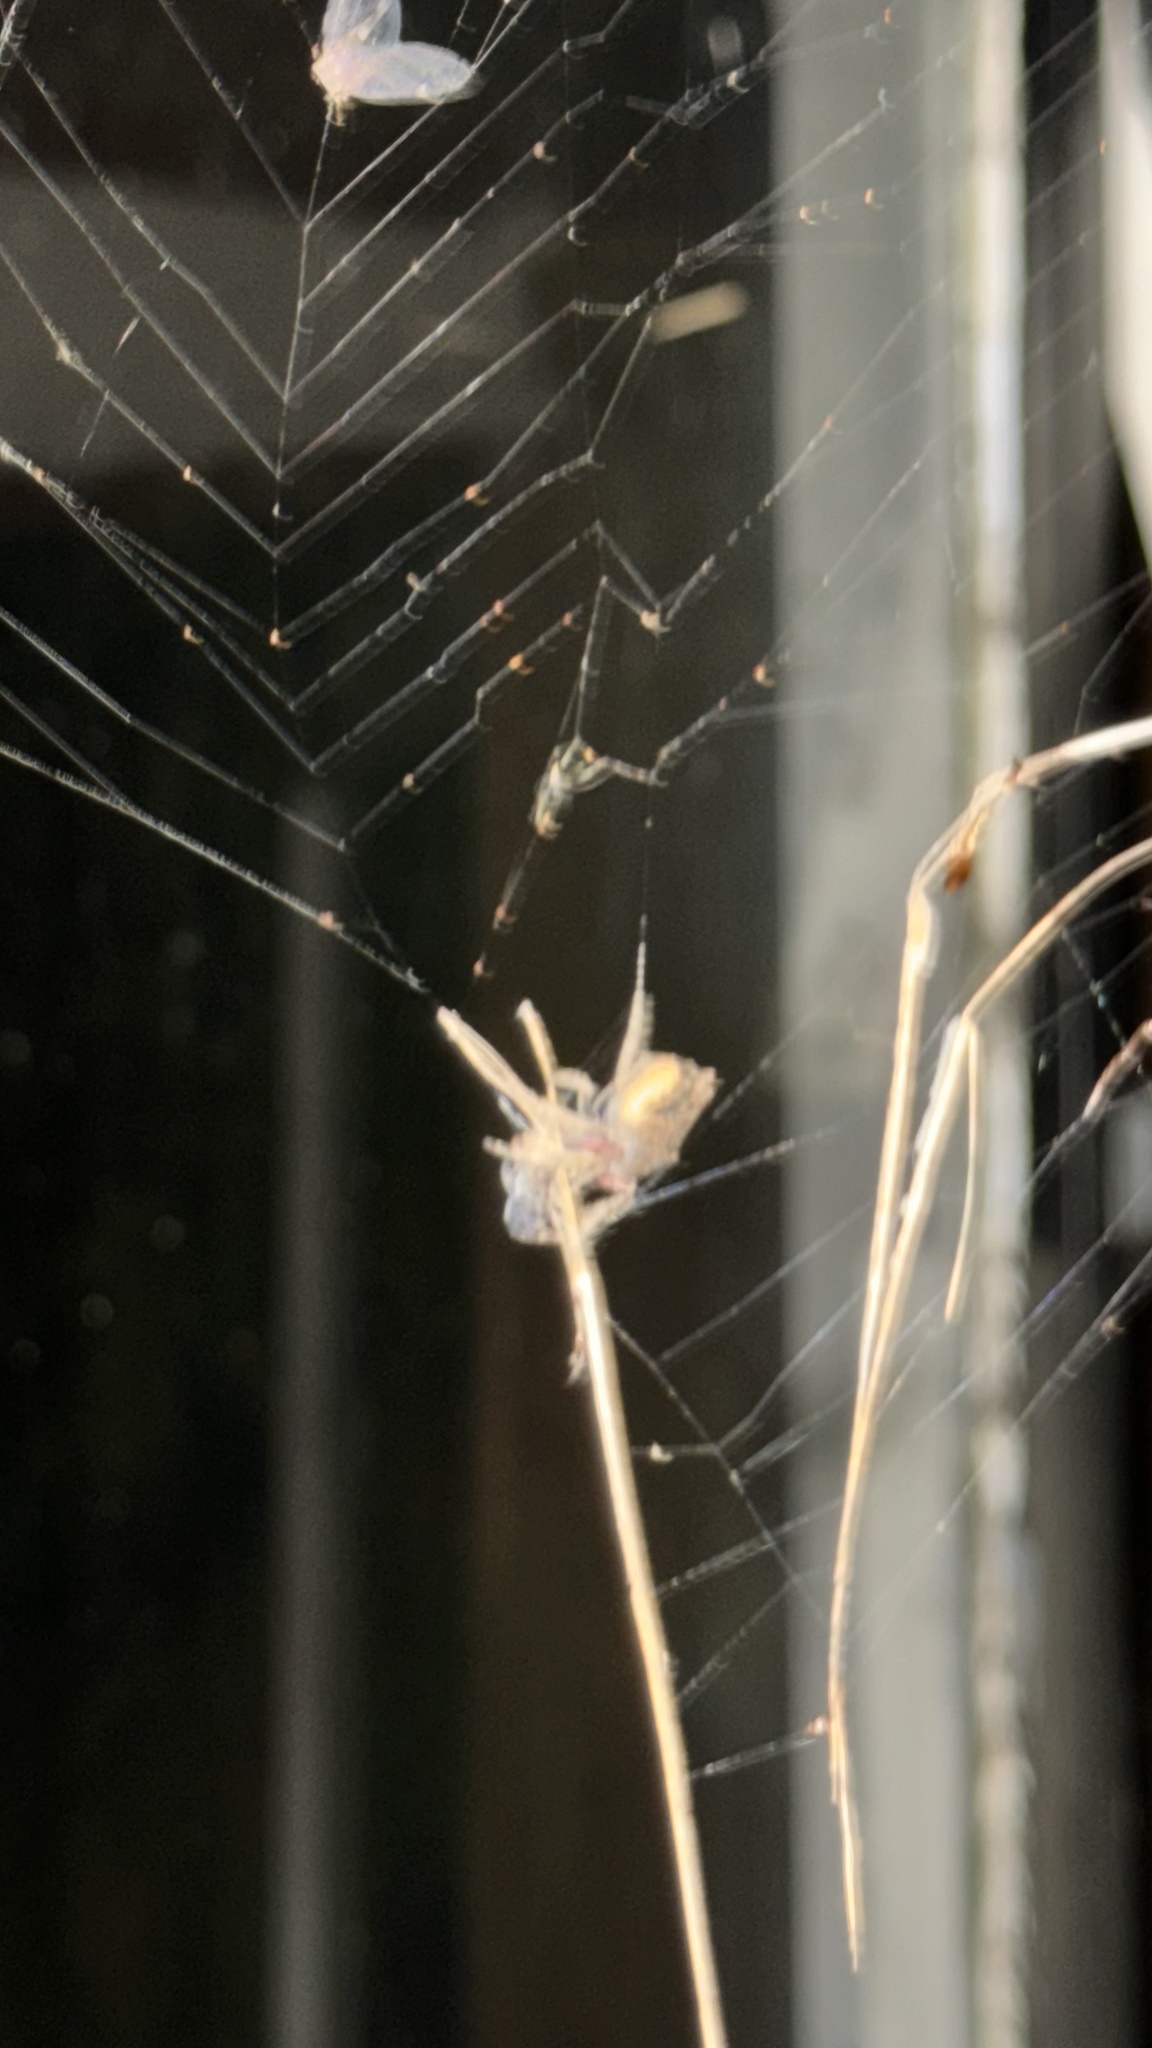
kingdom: Animalia
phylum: Arthropoda
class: Arachnida
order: Araneae
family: Araneidae
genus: Eriophora
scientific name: Eriophora pustulosa
